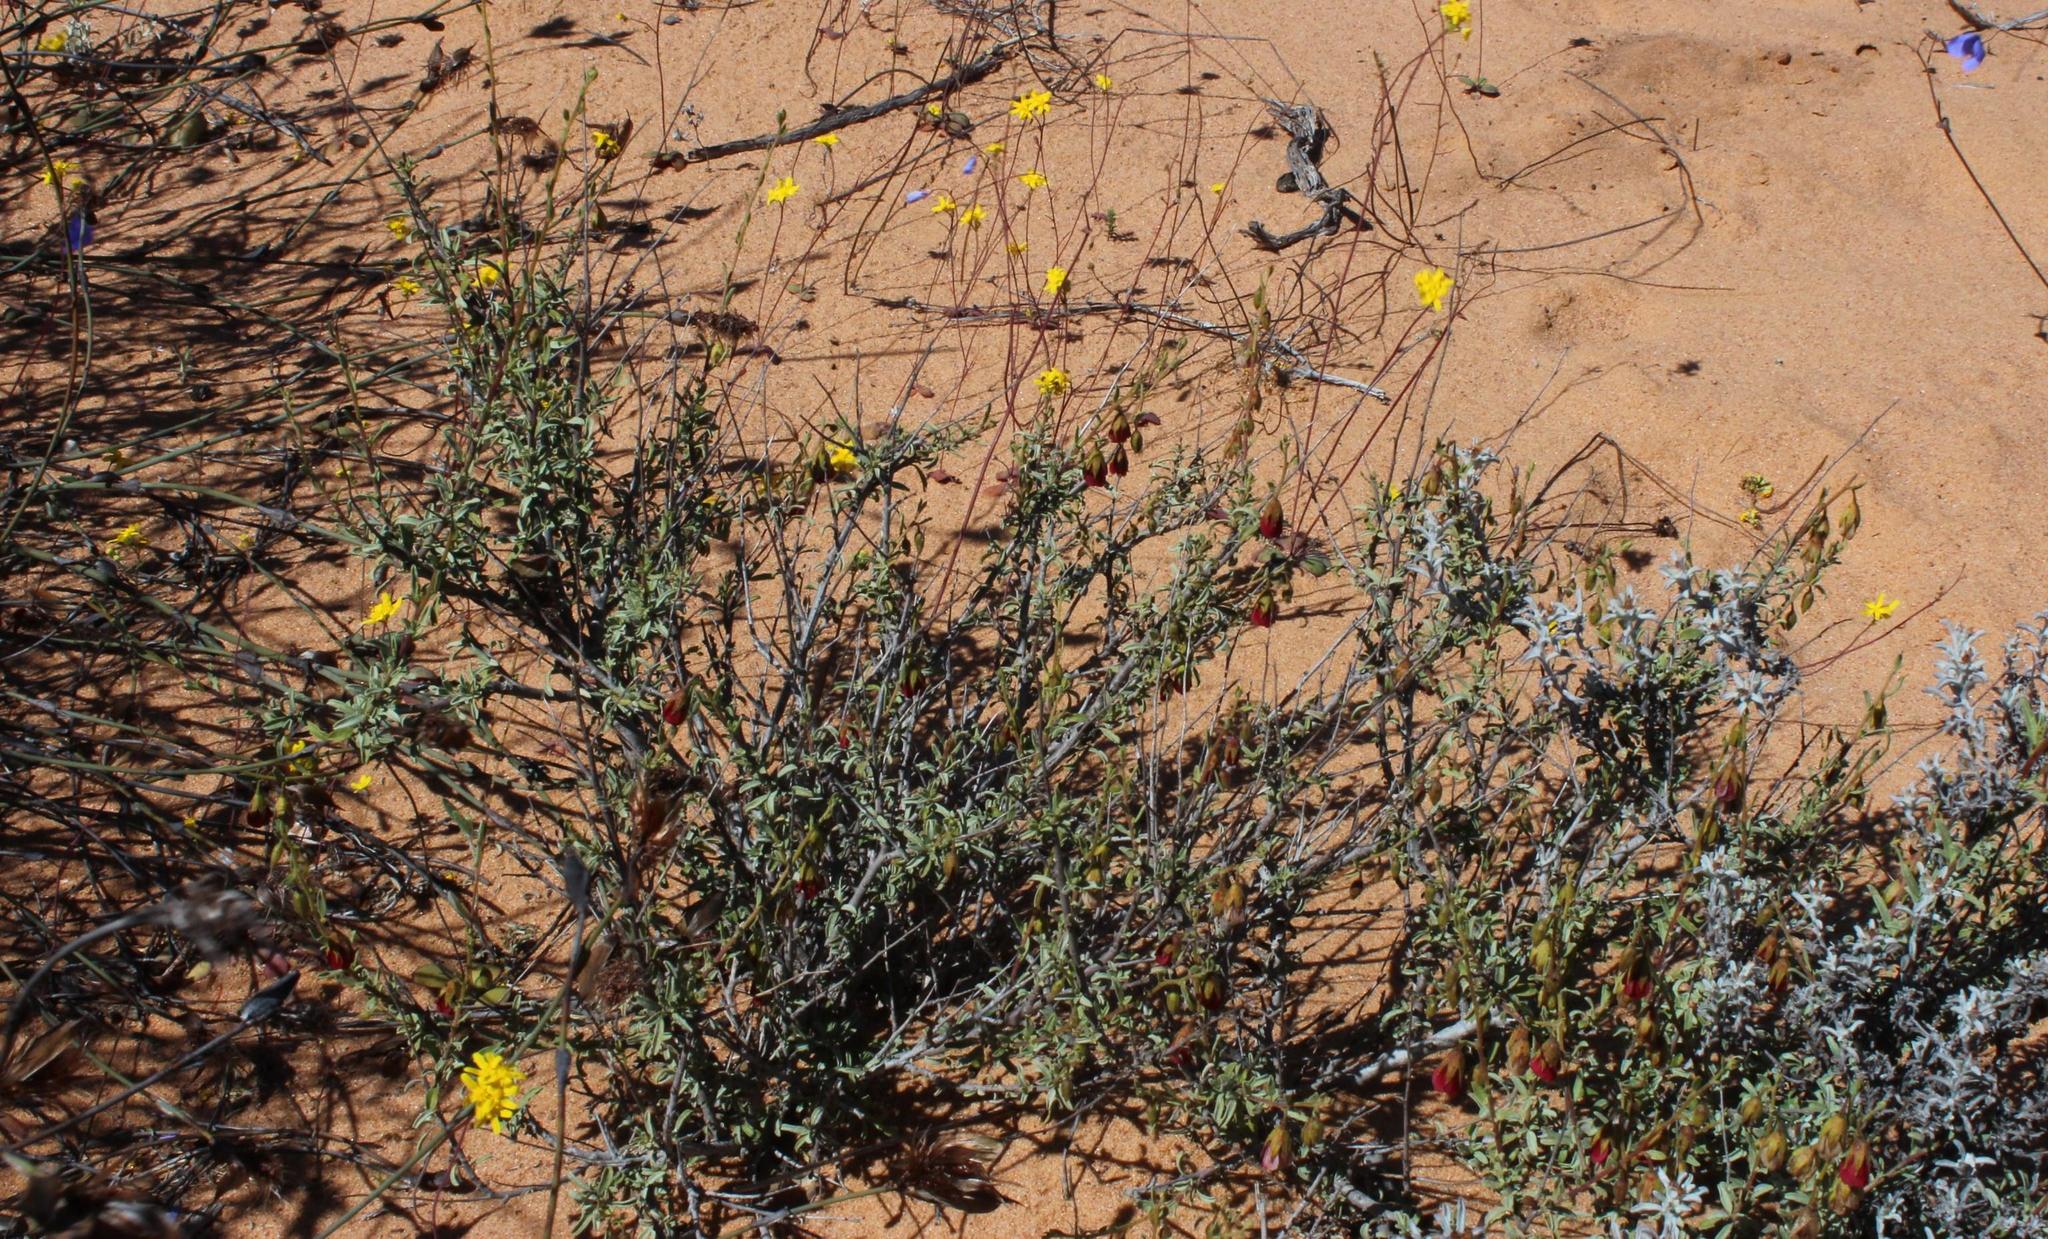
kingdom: Plantae
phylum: Tracheophyta
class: Magnoliopsida
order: Malvales
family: Malvaceae
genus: Hermannia
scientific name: Hermannia trifurca
